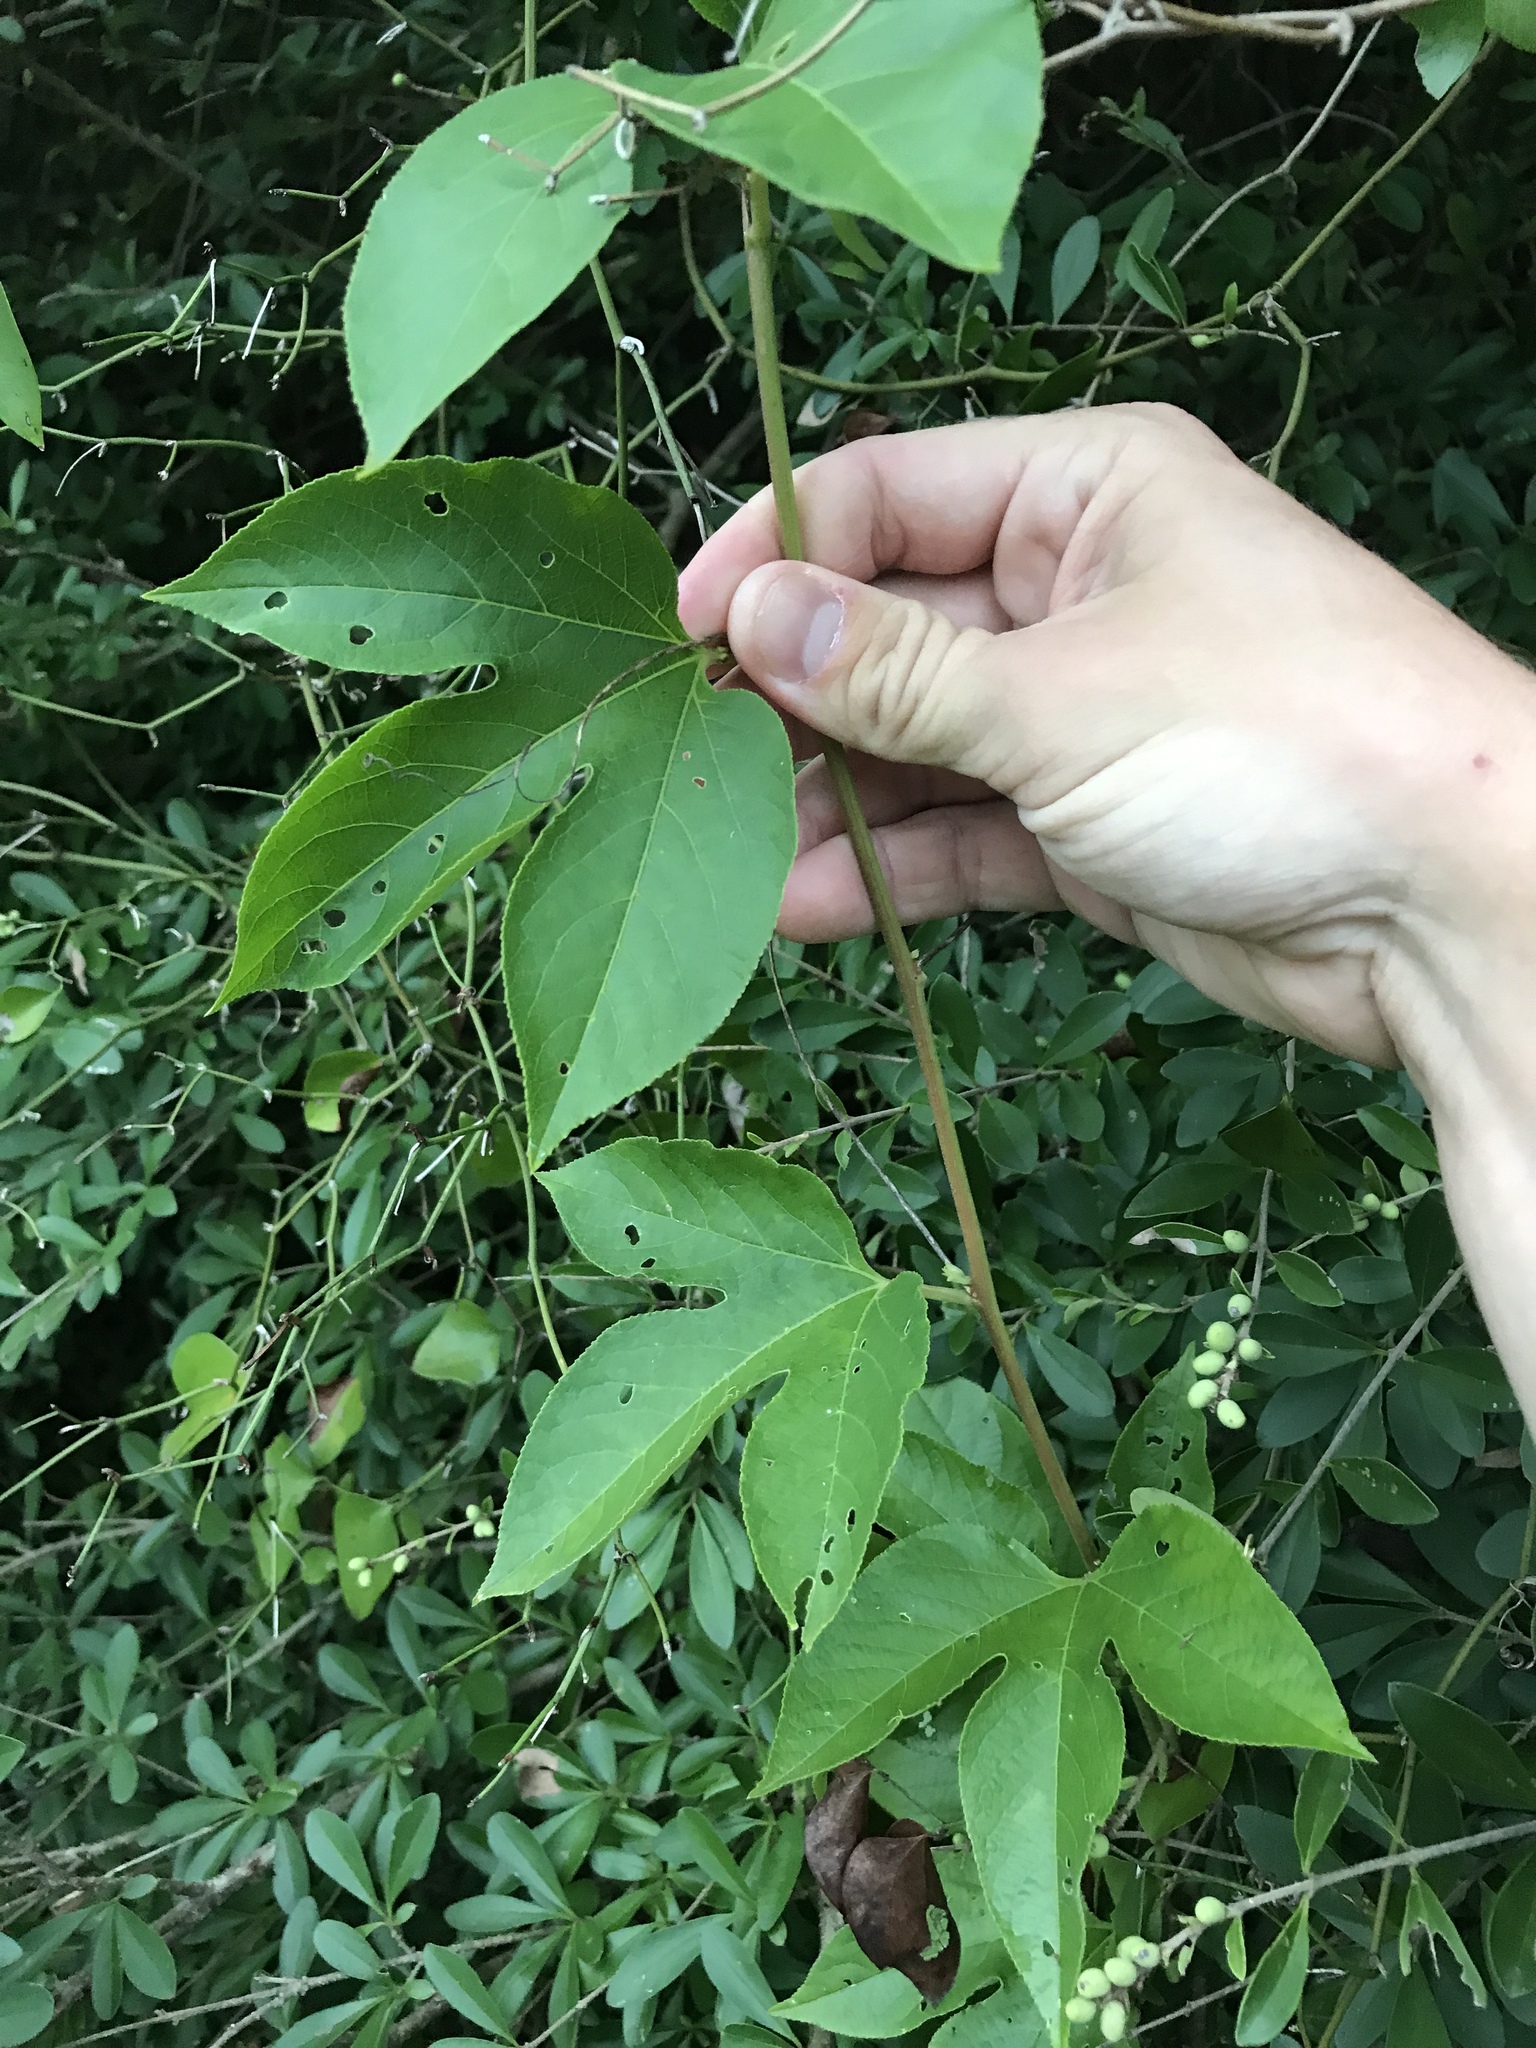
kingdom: Plantae
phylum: Tracheophyta
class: Magnoliopsida
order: Malpighiales
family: Passifloraceae
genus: Passiflora
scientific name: Passiflora incarnata
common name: Apricot-vine
